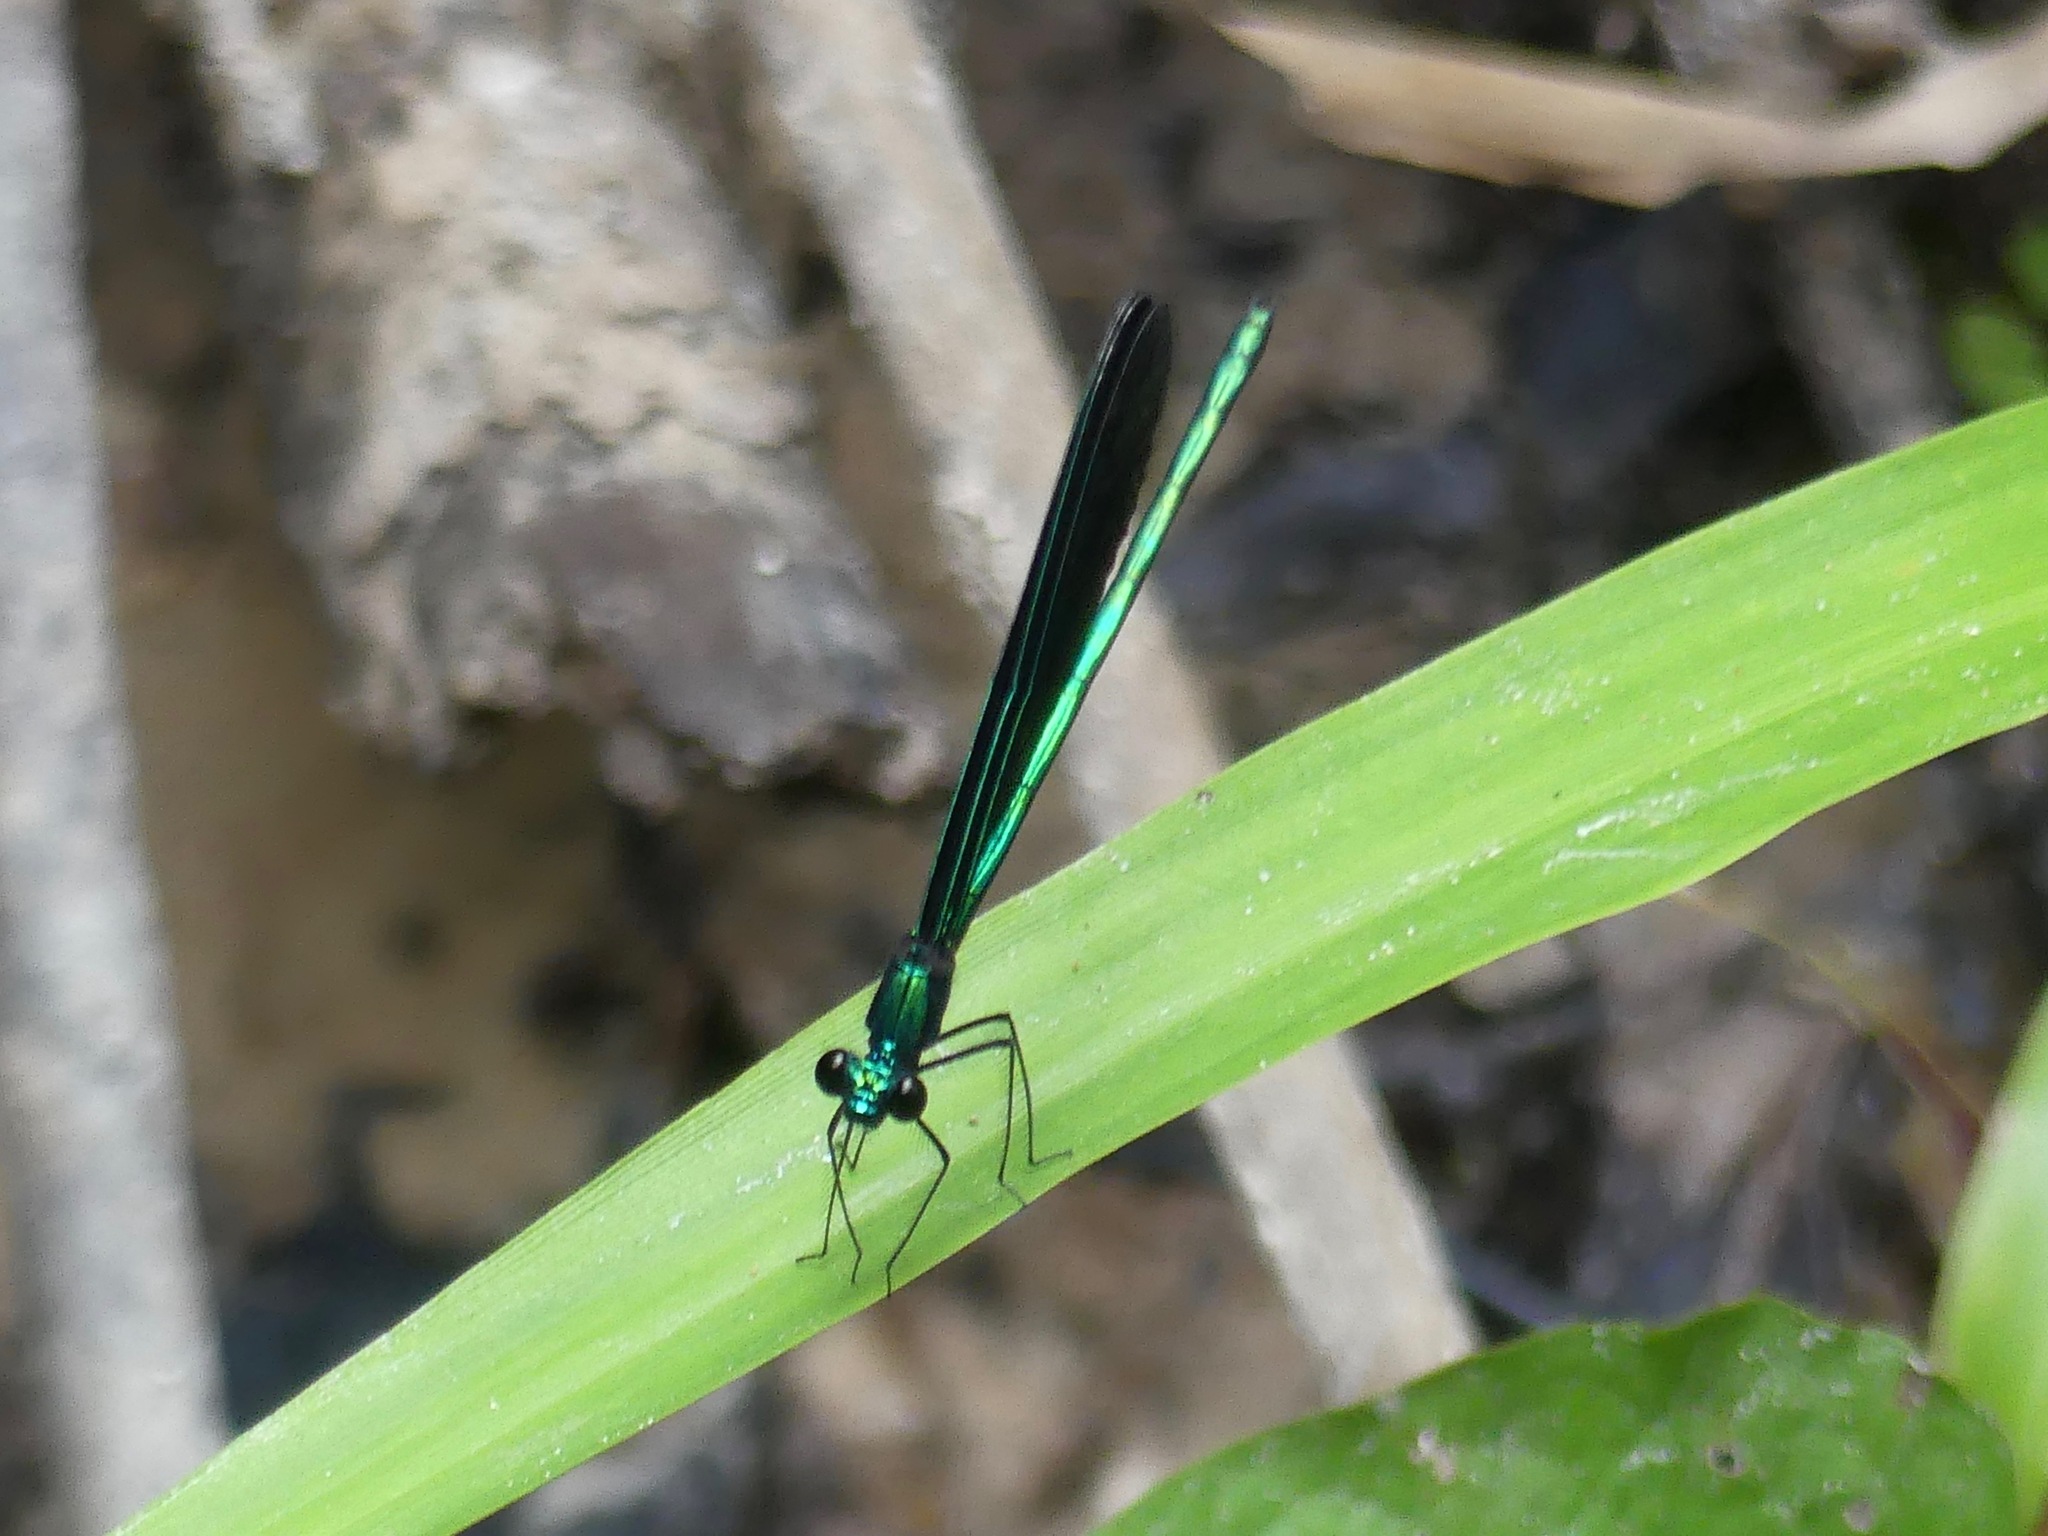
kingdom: Animalia
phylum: Arthropoda
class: Insecta
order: Odonata
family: Calopterygidae
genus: Calopteryx
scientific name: Calopteryx maculata
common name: Ebony jewelwing
